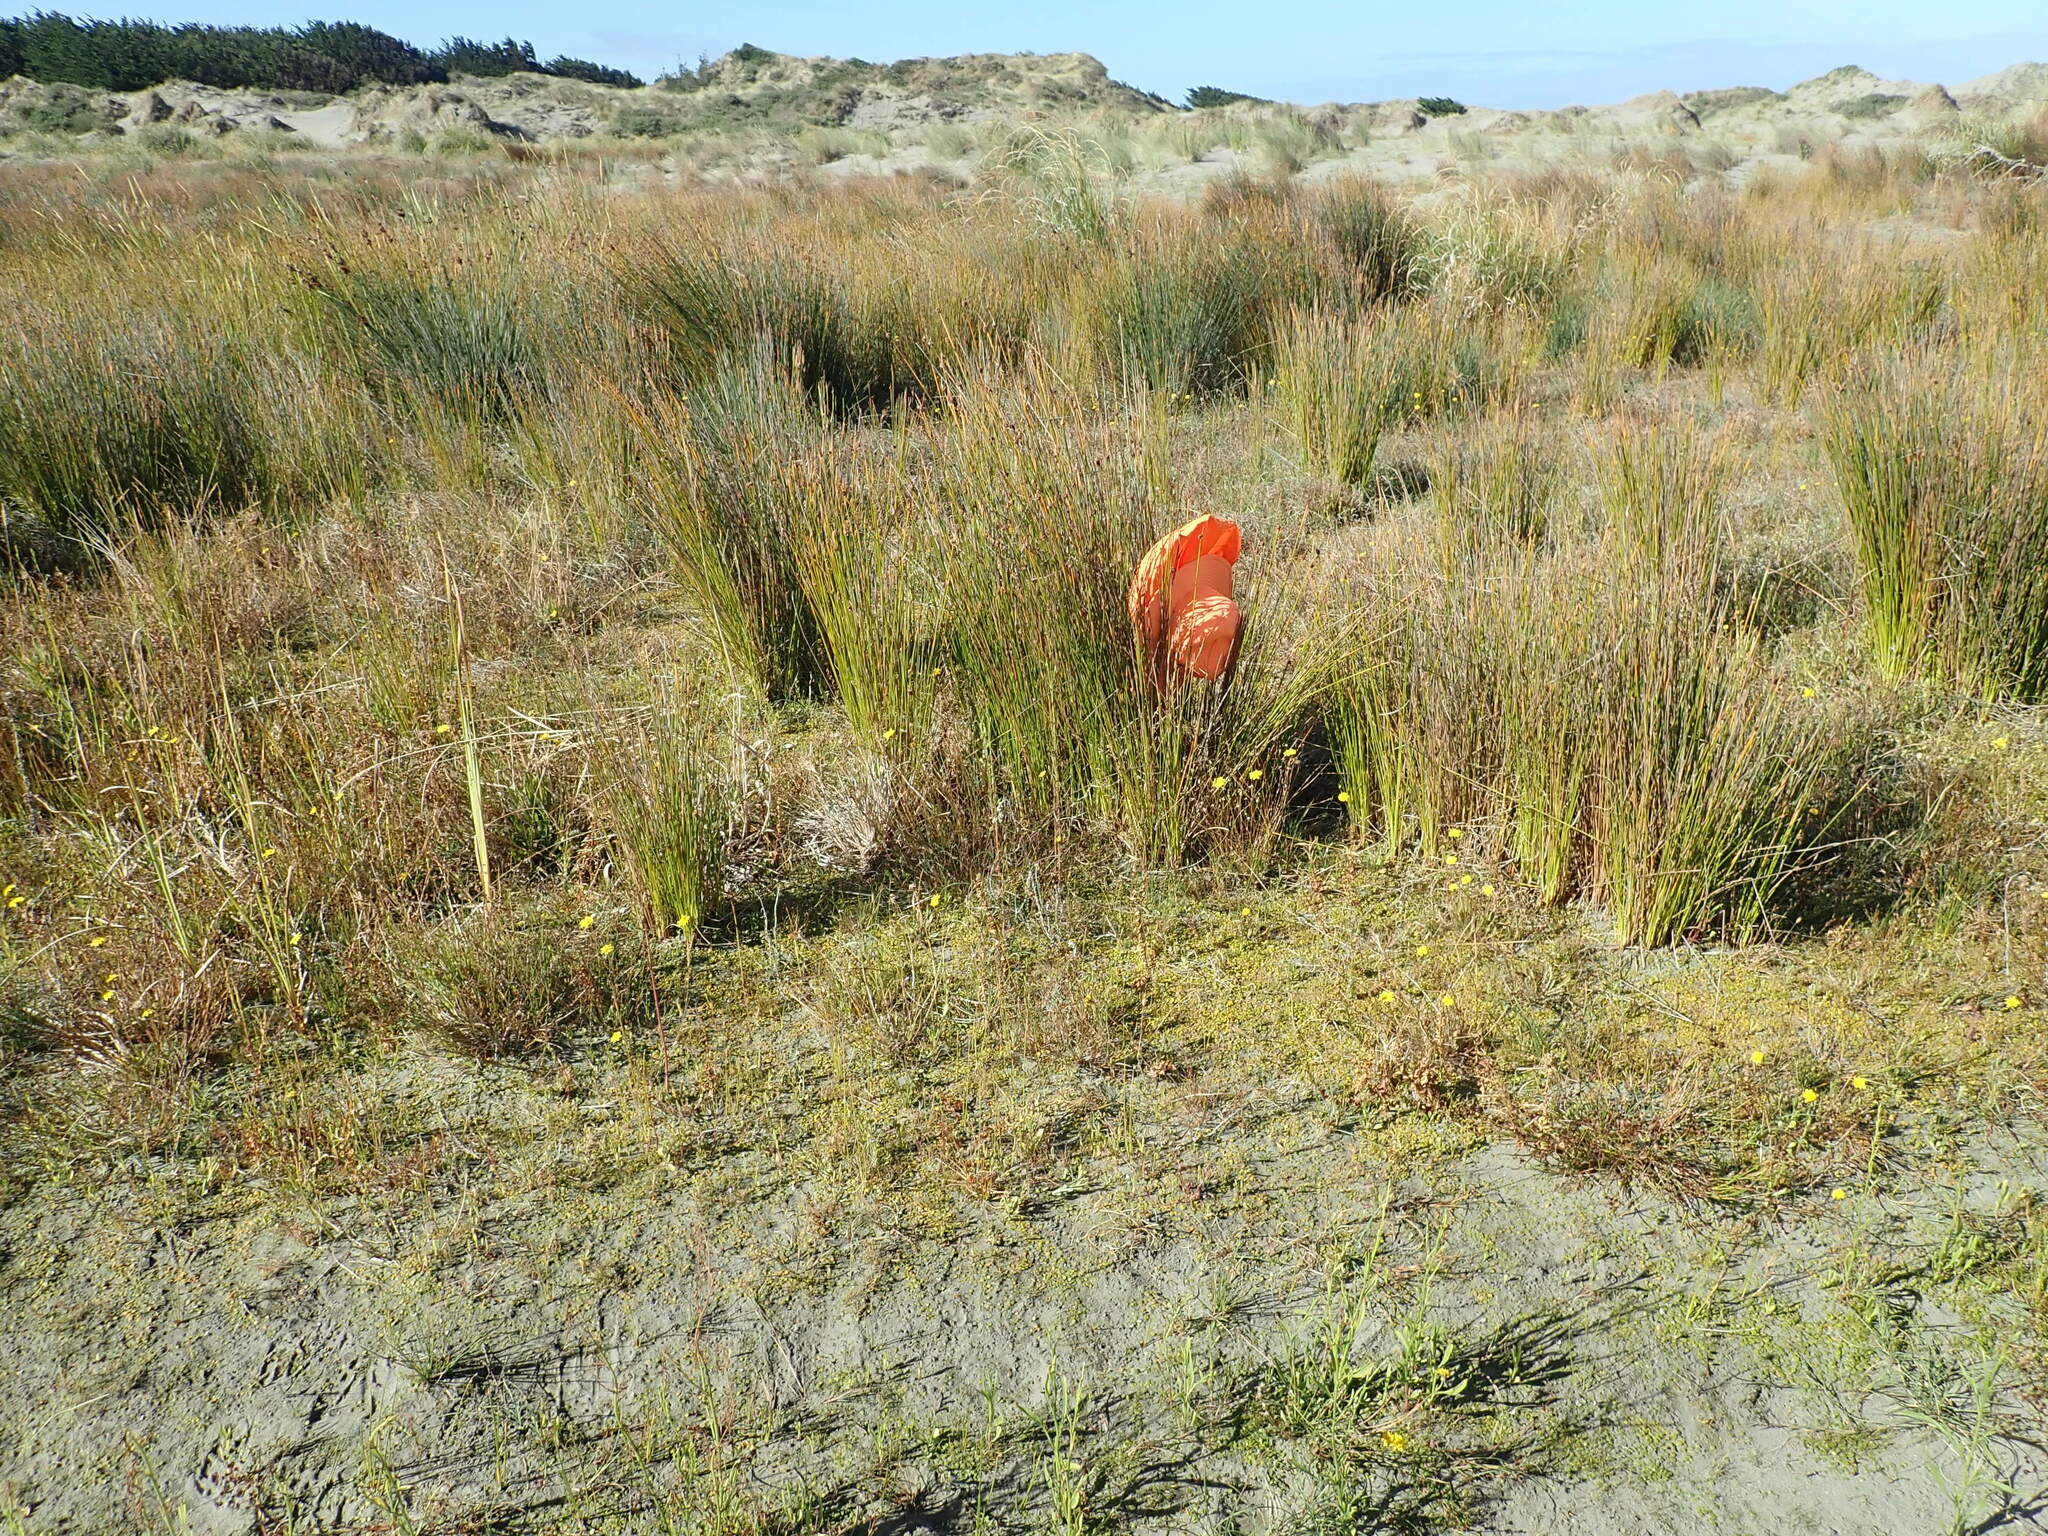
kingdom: Plantae
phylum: Tracheophyta
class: Magnoliopsida
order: Asterales
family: Goodeniaceae
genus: Goodenia
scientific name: Goodenia heenanii
